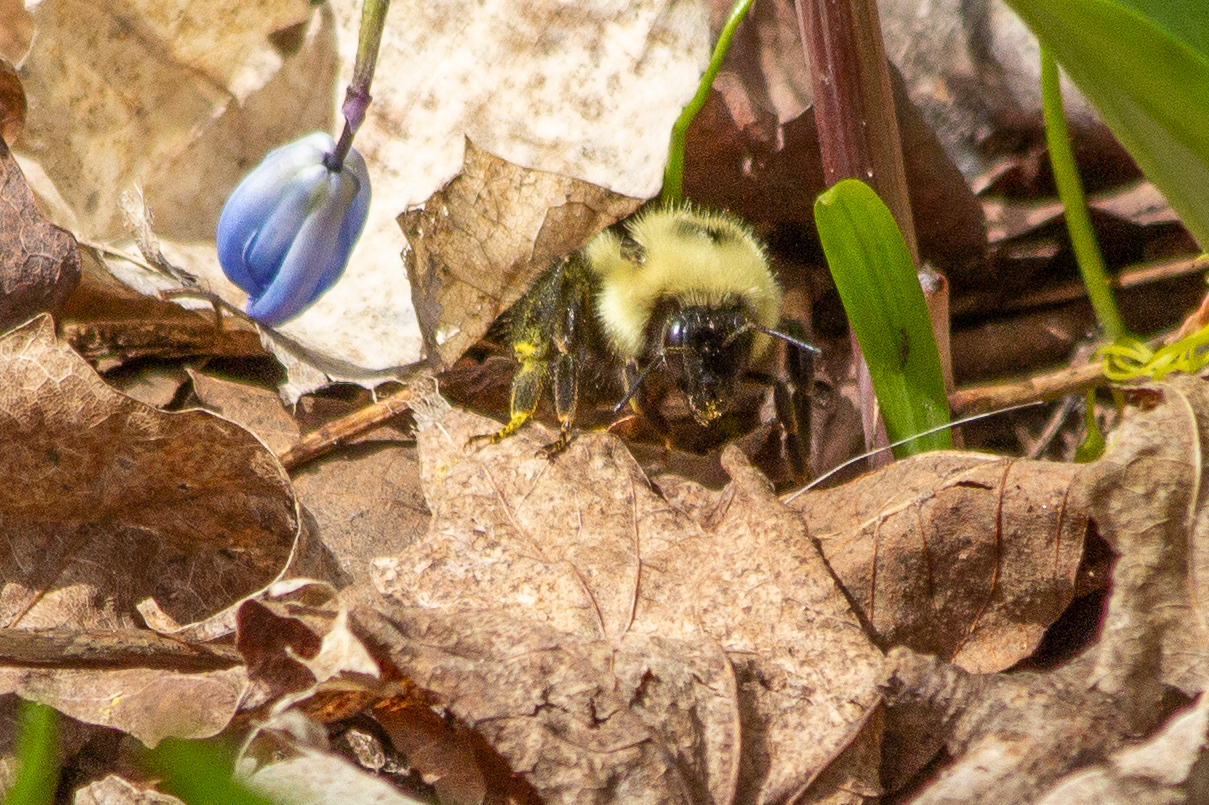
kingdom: Animalia
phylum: Arthropoda
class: Insecta
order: Hymenoptera
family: Apidae
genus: Bombus
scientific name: Bombus bimaculatus
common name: Two-spotted bumble bee
